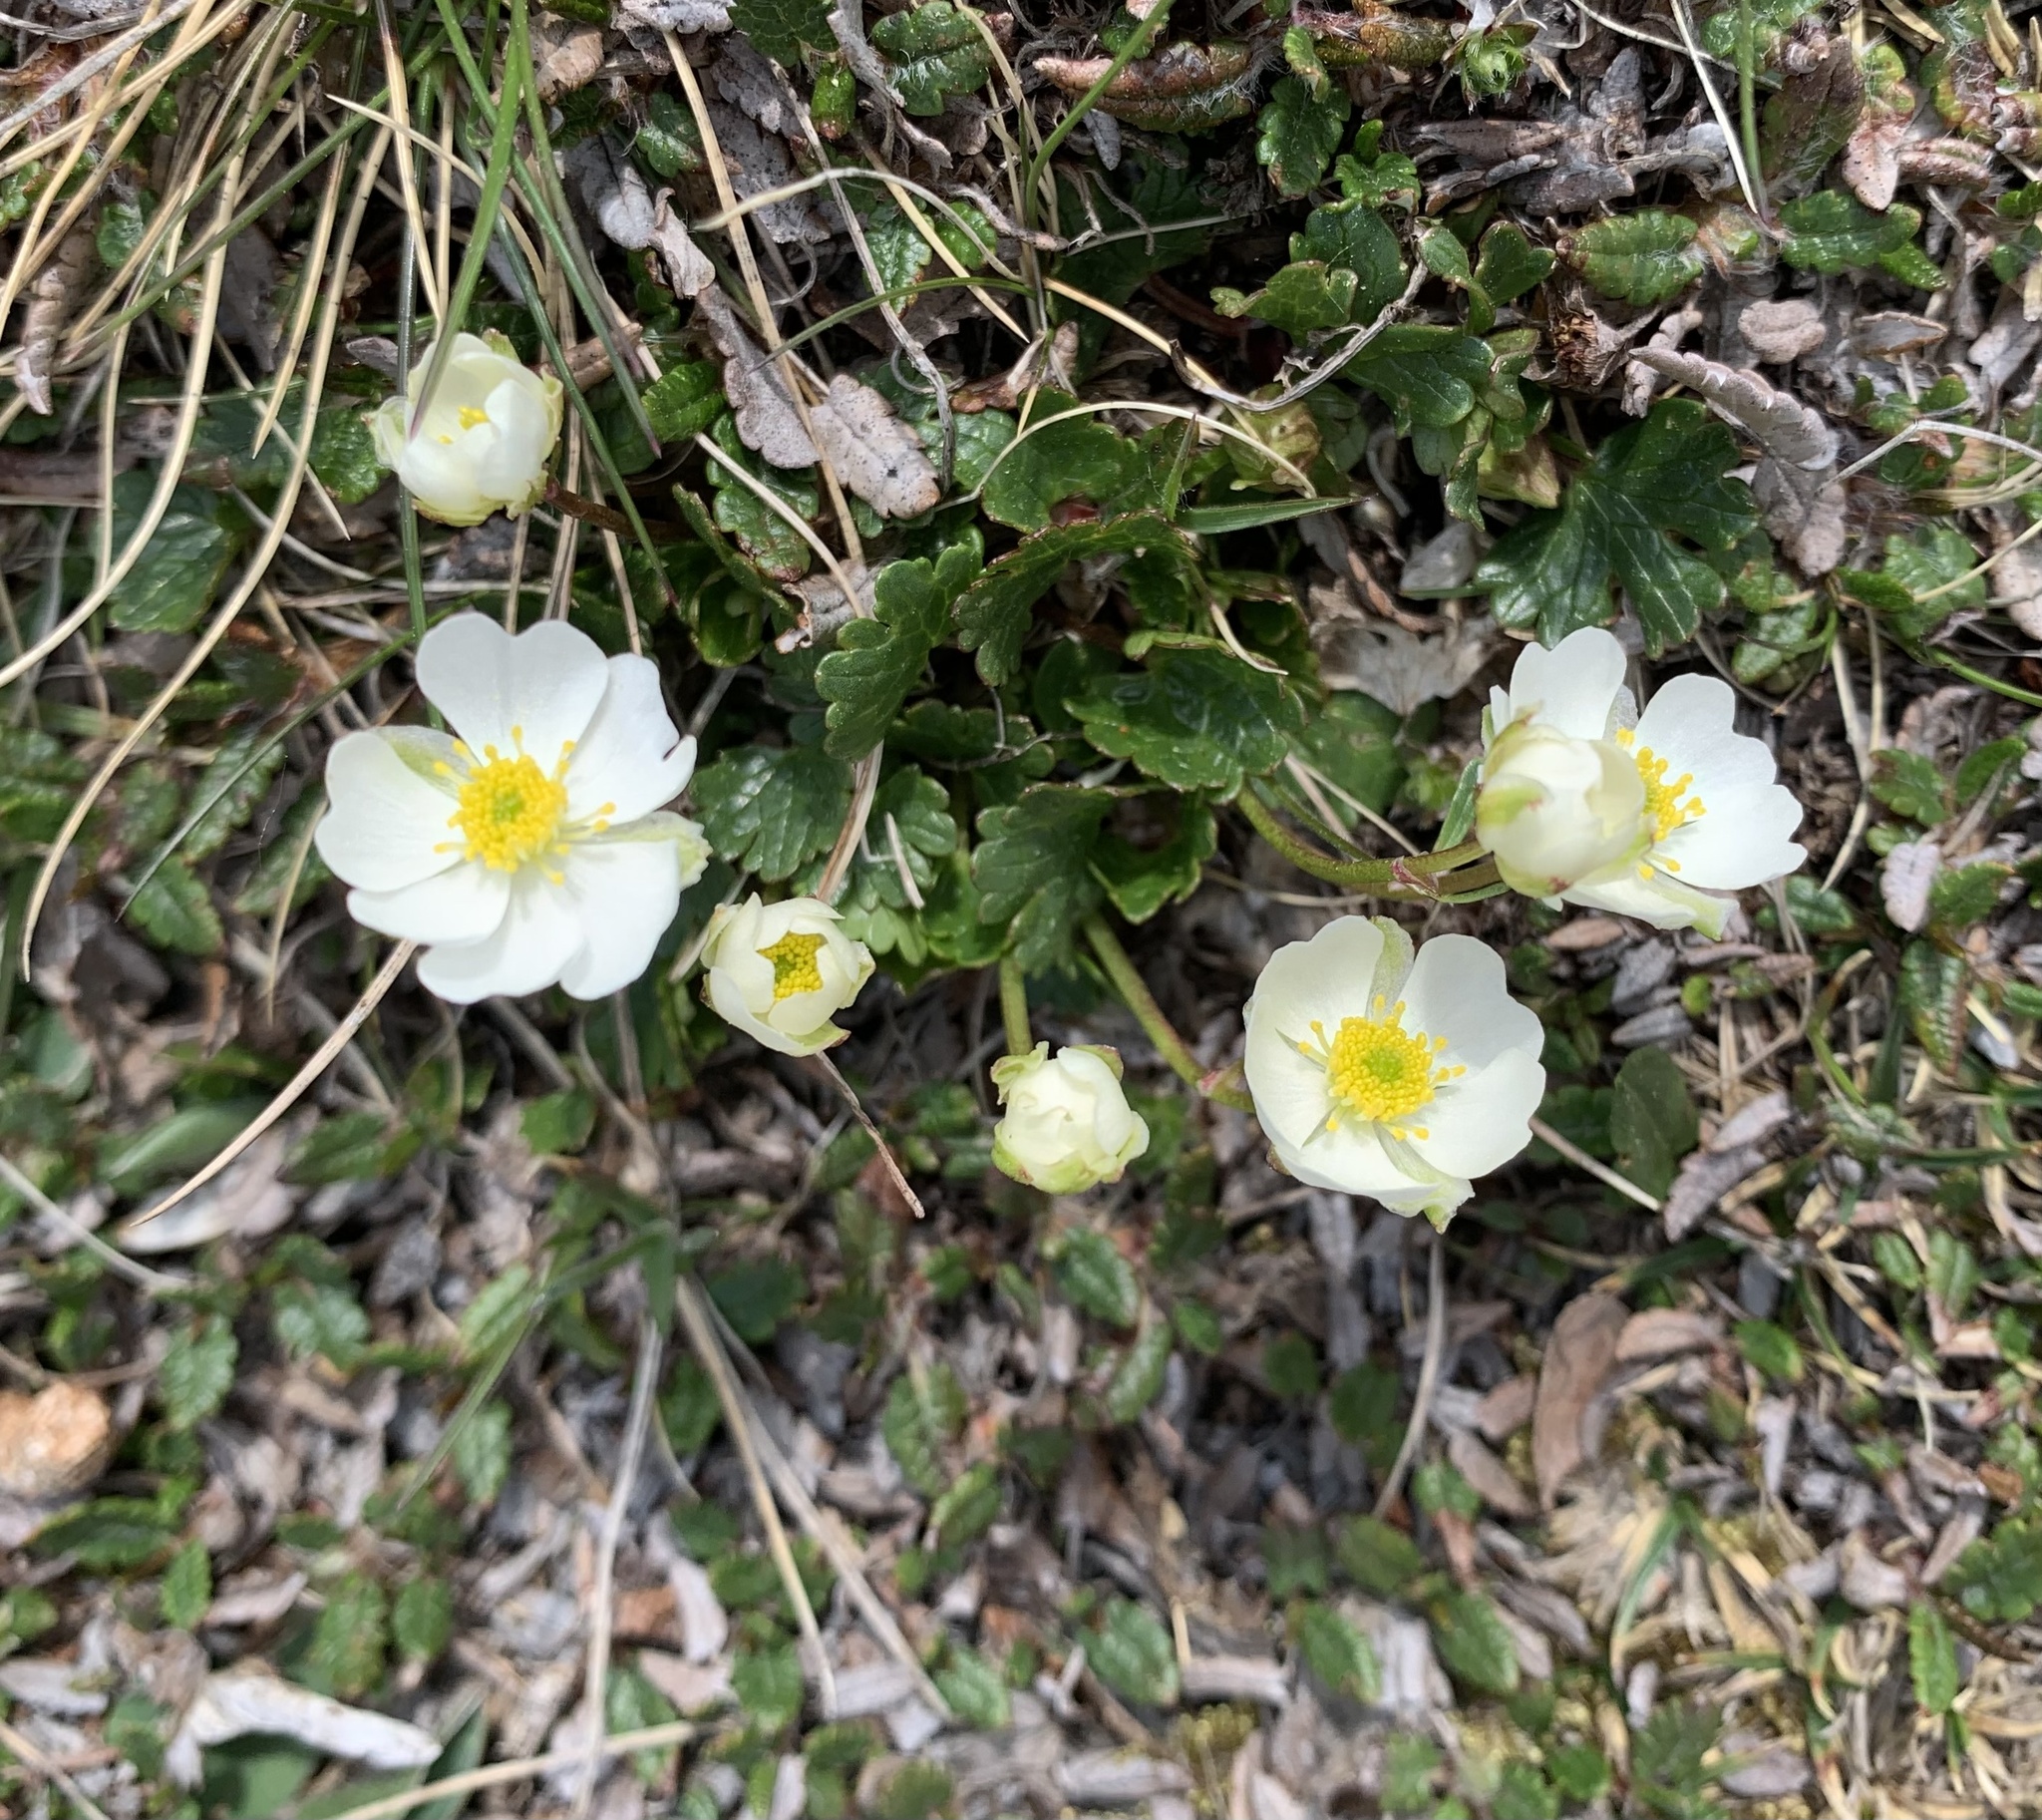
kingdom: Plantae
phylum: Tracheophyta
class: Magnoliopsida
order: Ranunculales
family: Ranunculaceae
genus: Ranunculus
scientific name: Ranunculus alpestris
